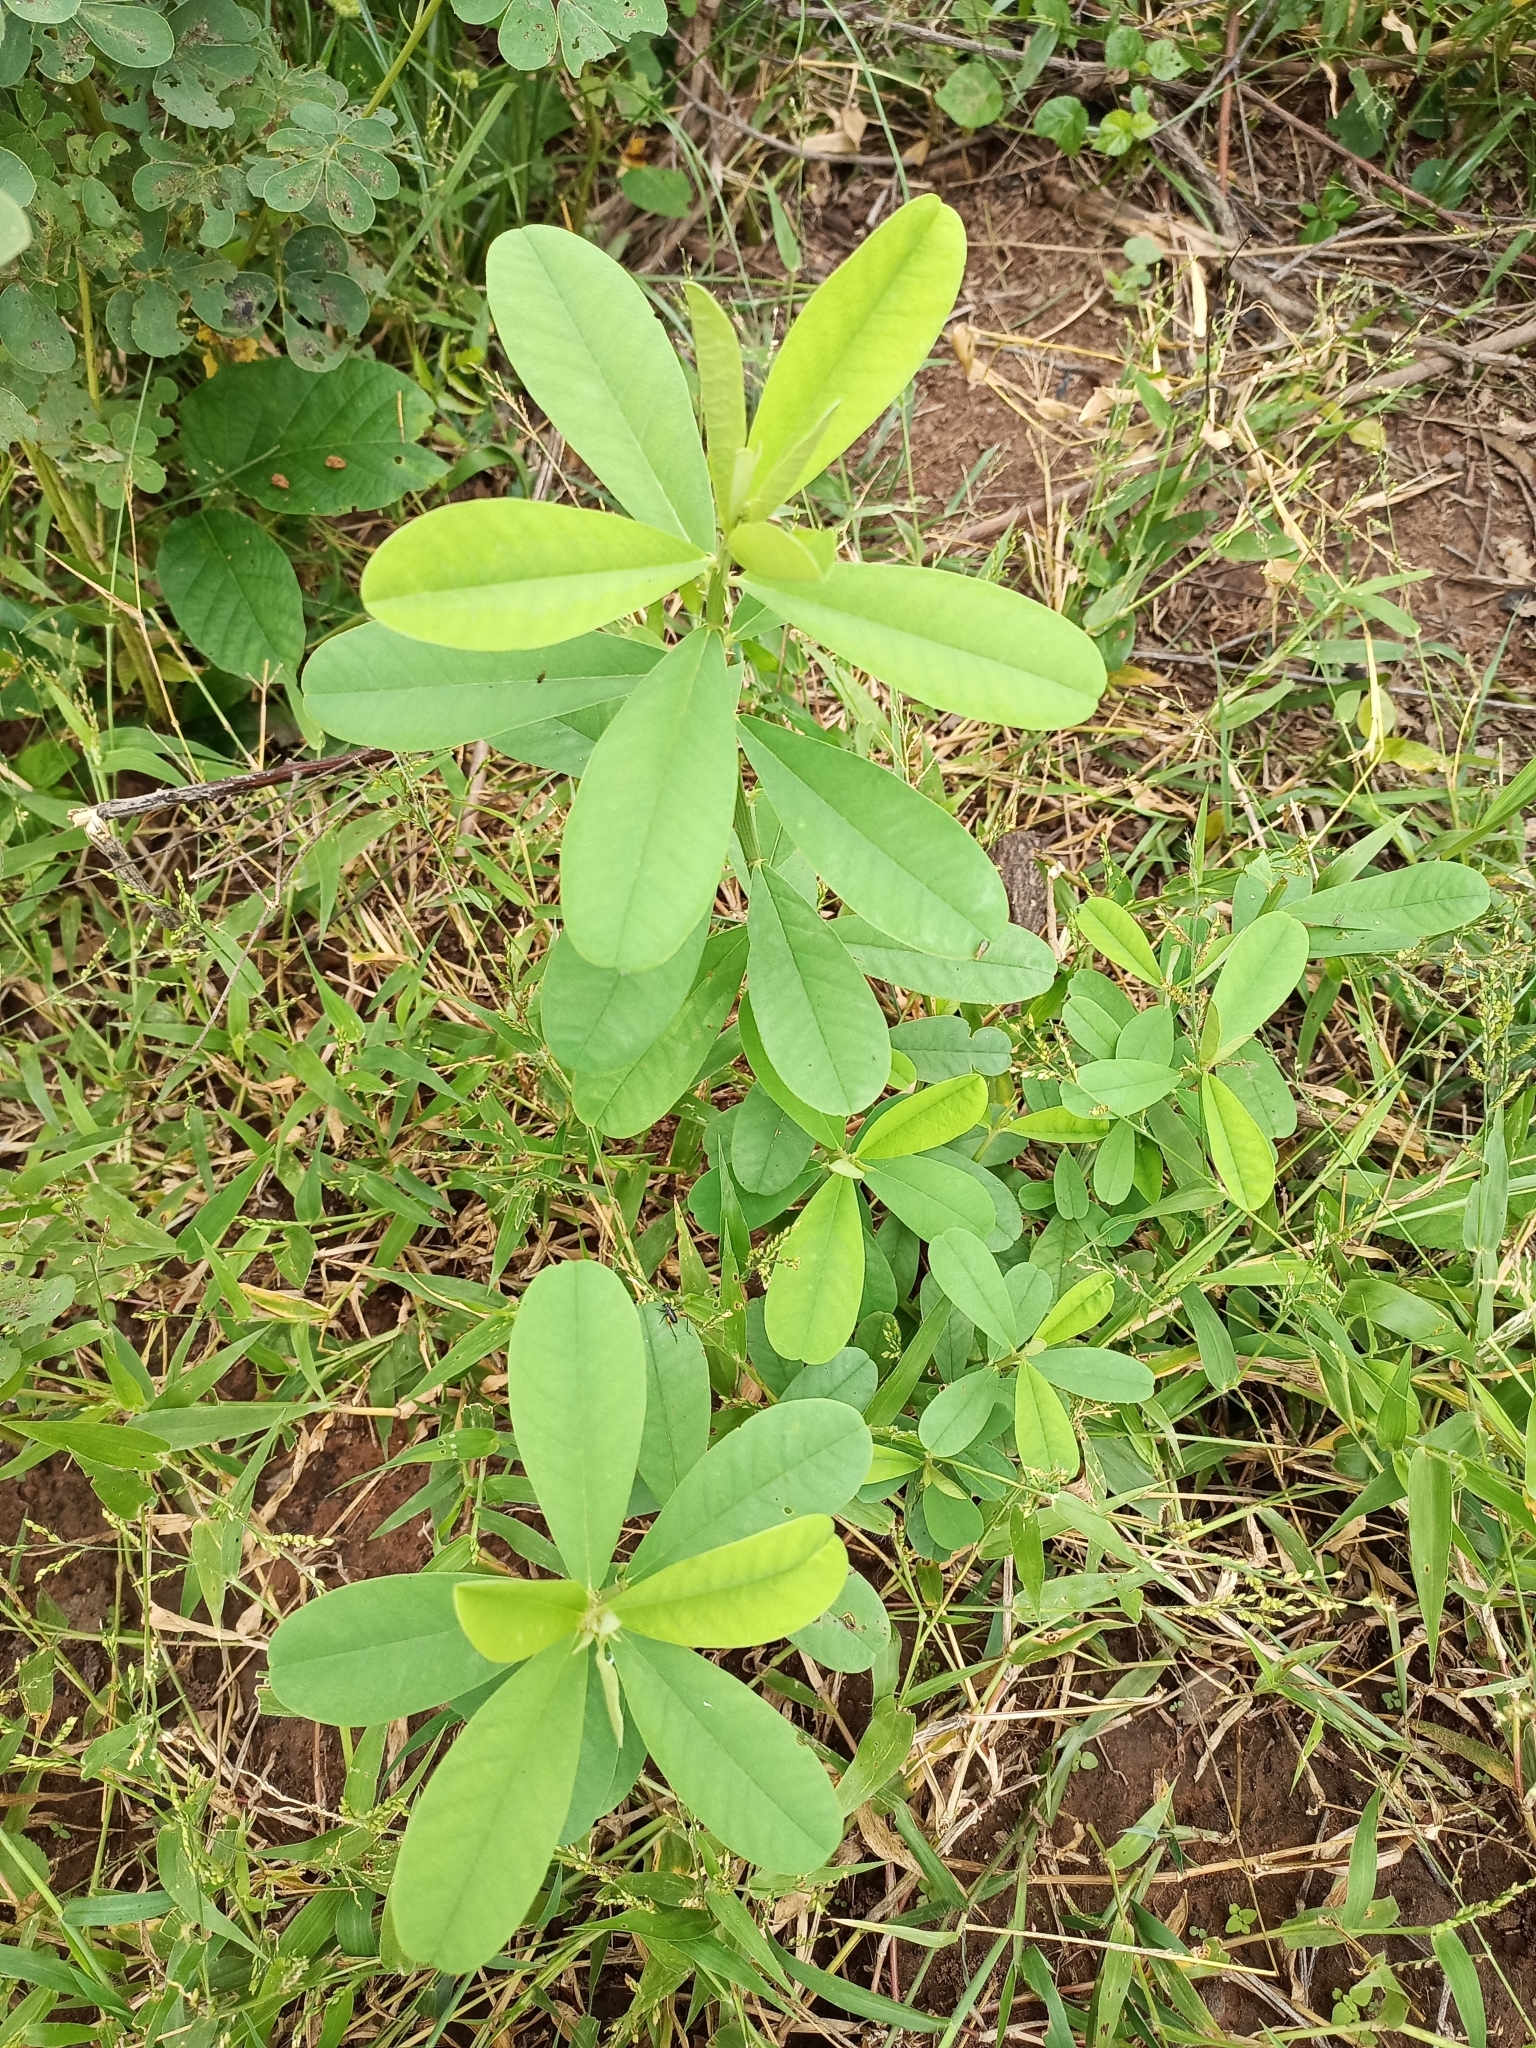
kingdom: Plantae
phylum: Tracheophyta
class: Magnoliopsida
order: Fabales
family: Fabaceae
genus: Crotalaria
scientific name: Crotalaria retusa
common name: Rattleweed
